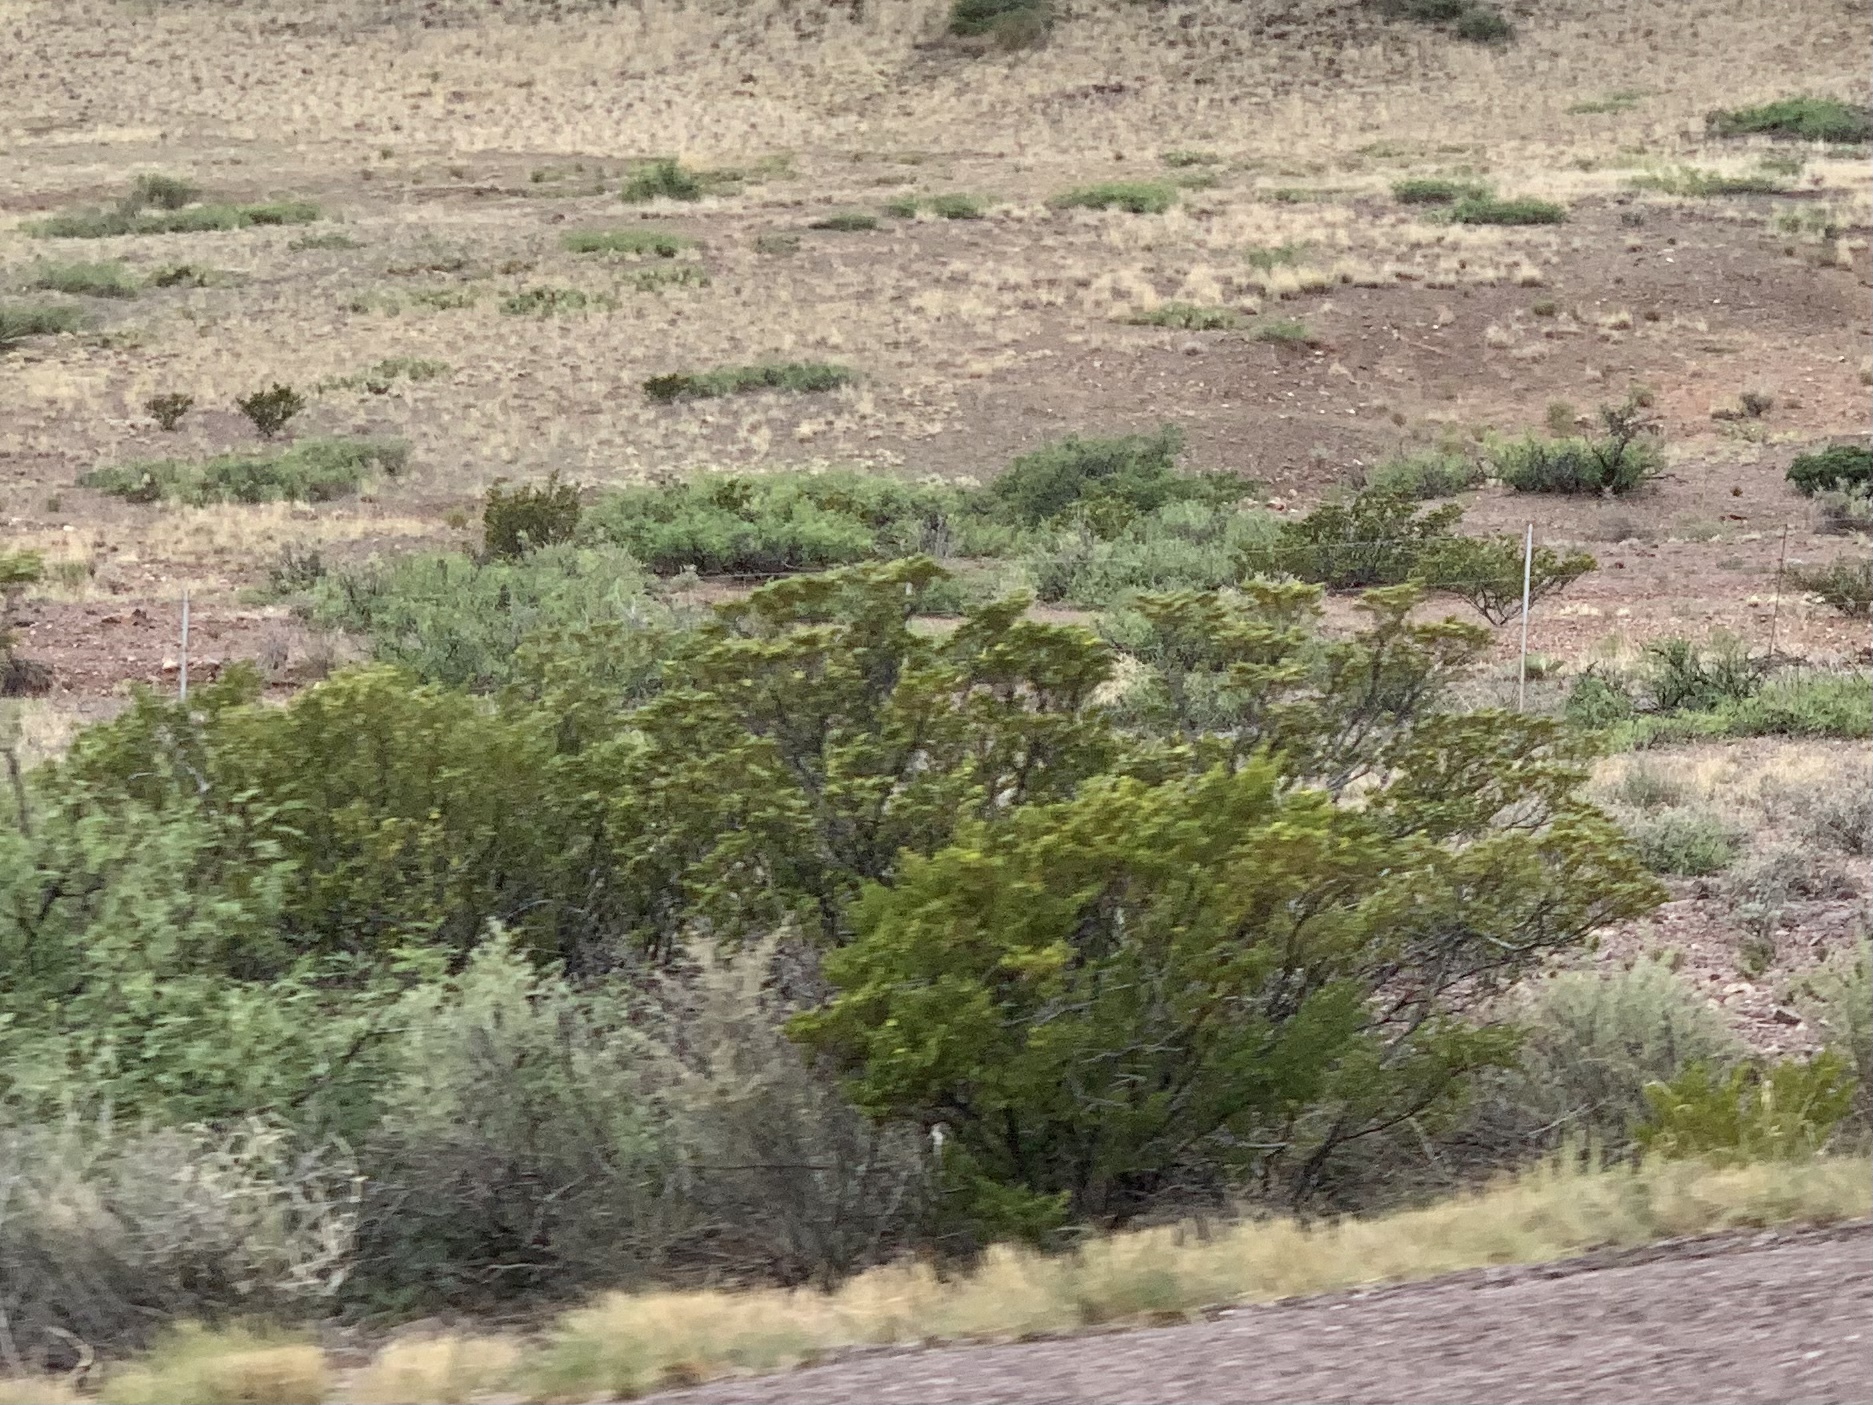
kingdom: Plantae
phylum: Tracheophyta
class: Magnoliopsida
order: Zygophyllales
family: Zygophyllaceae
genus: Larrea
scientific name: Larrea tridentata
